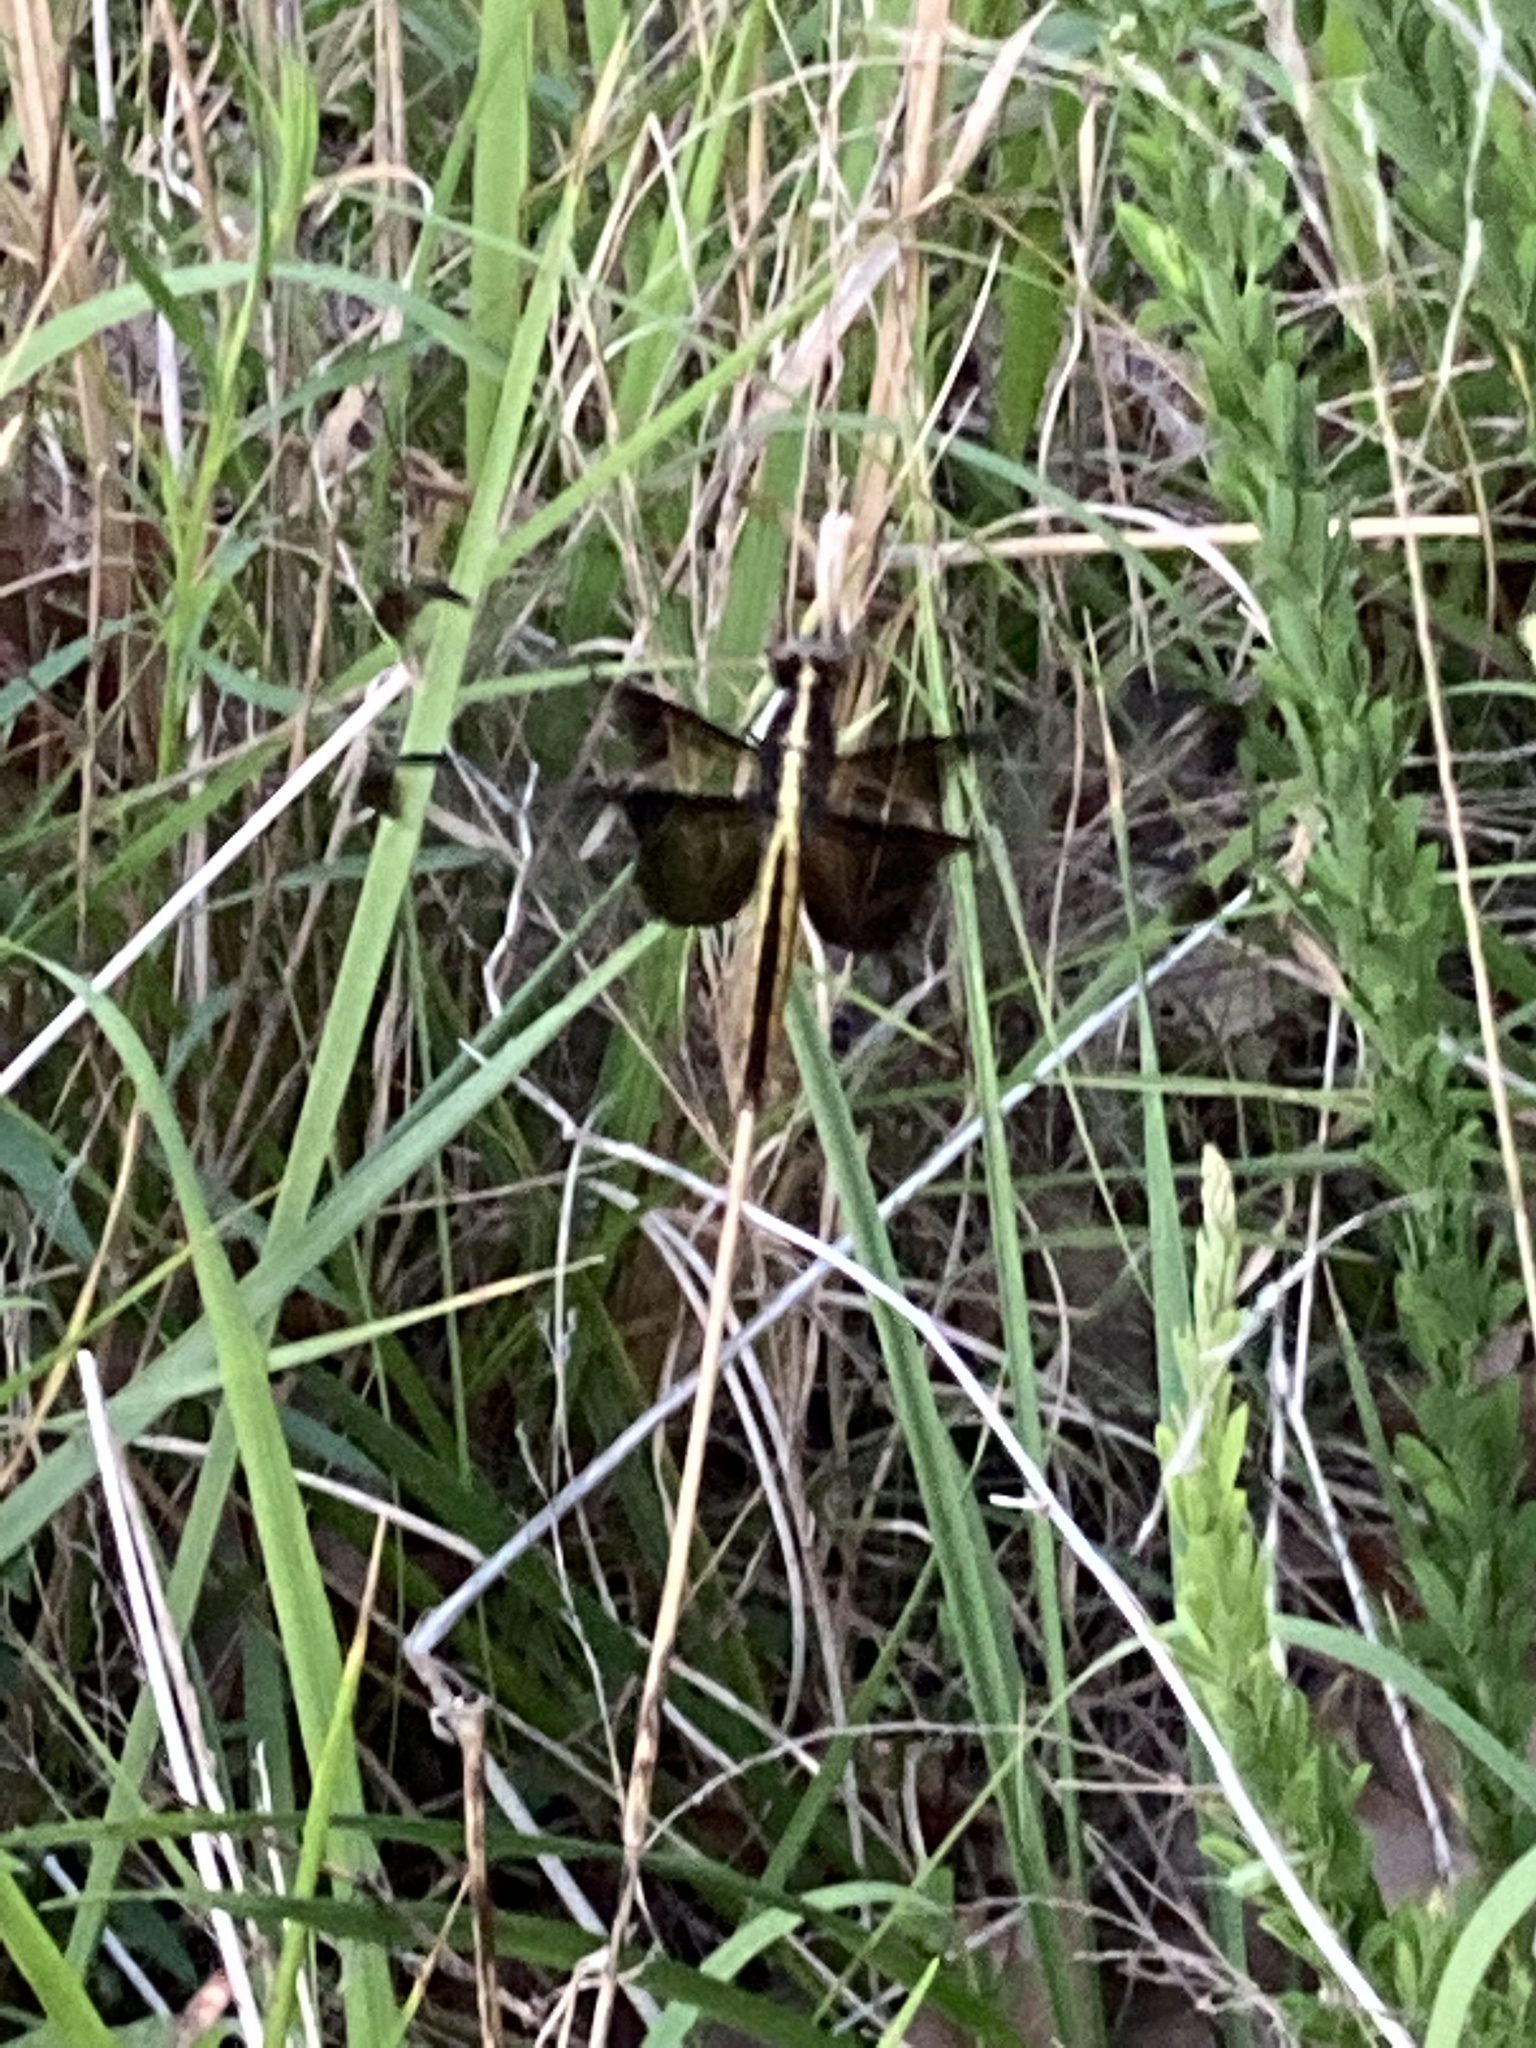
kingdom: Animalia
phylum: Arthropoda
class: Insecta
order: Odonata
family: Libellulidae
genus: Libellula
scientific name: Libellula luctuosa
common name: Widow skimmer
